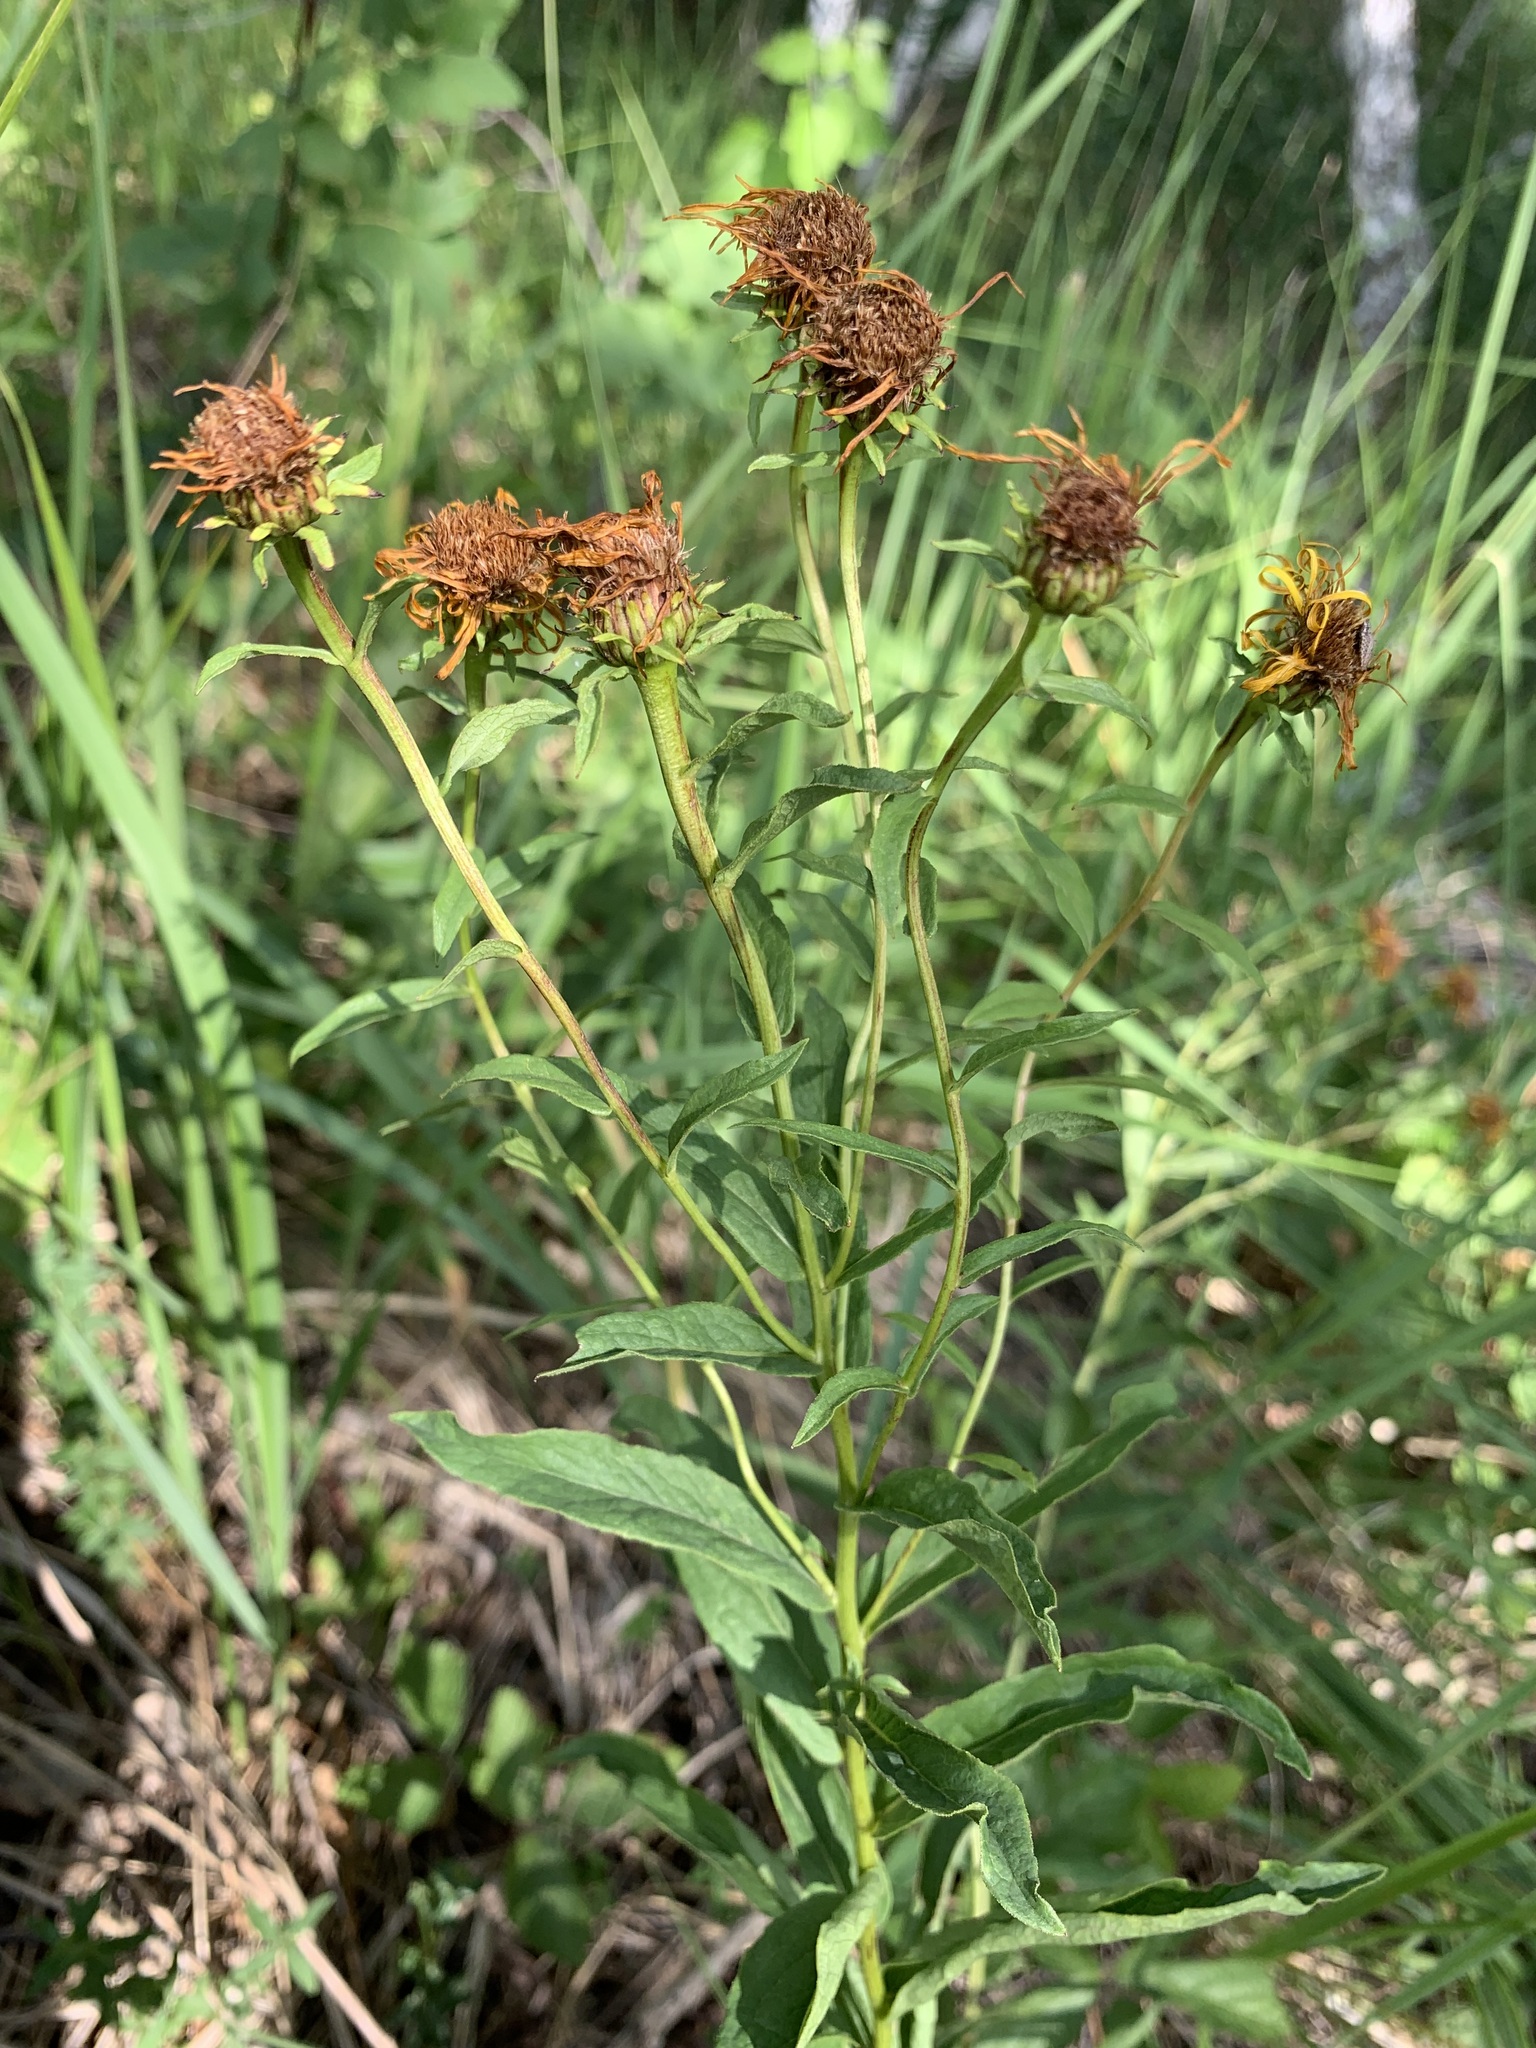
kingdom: Plantae
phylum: Tracheophyta
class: Magnoliopsida
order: Asterales
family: Asteraceae
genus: Pentanema
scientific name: Pentanema salicinum
